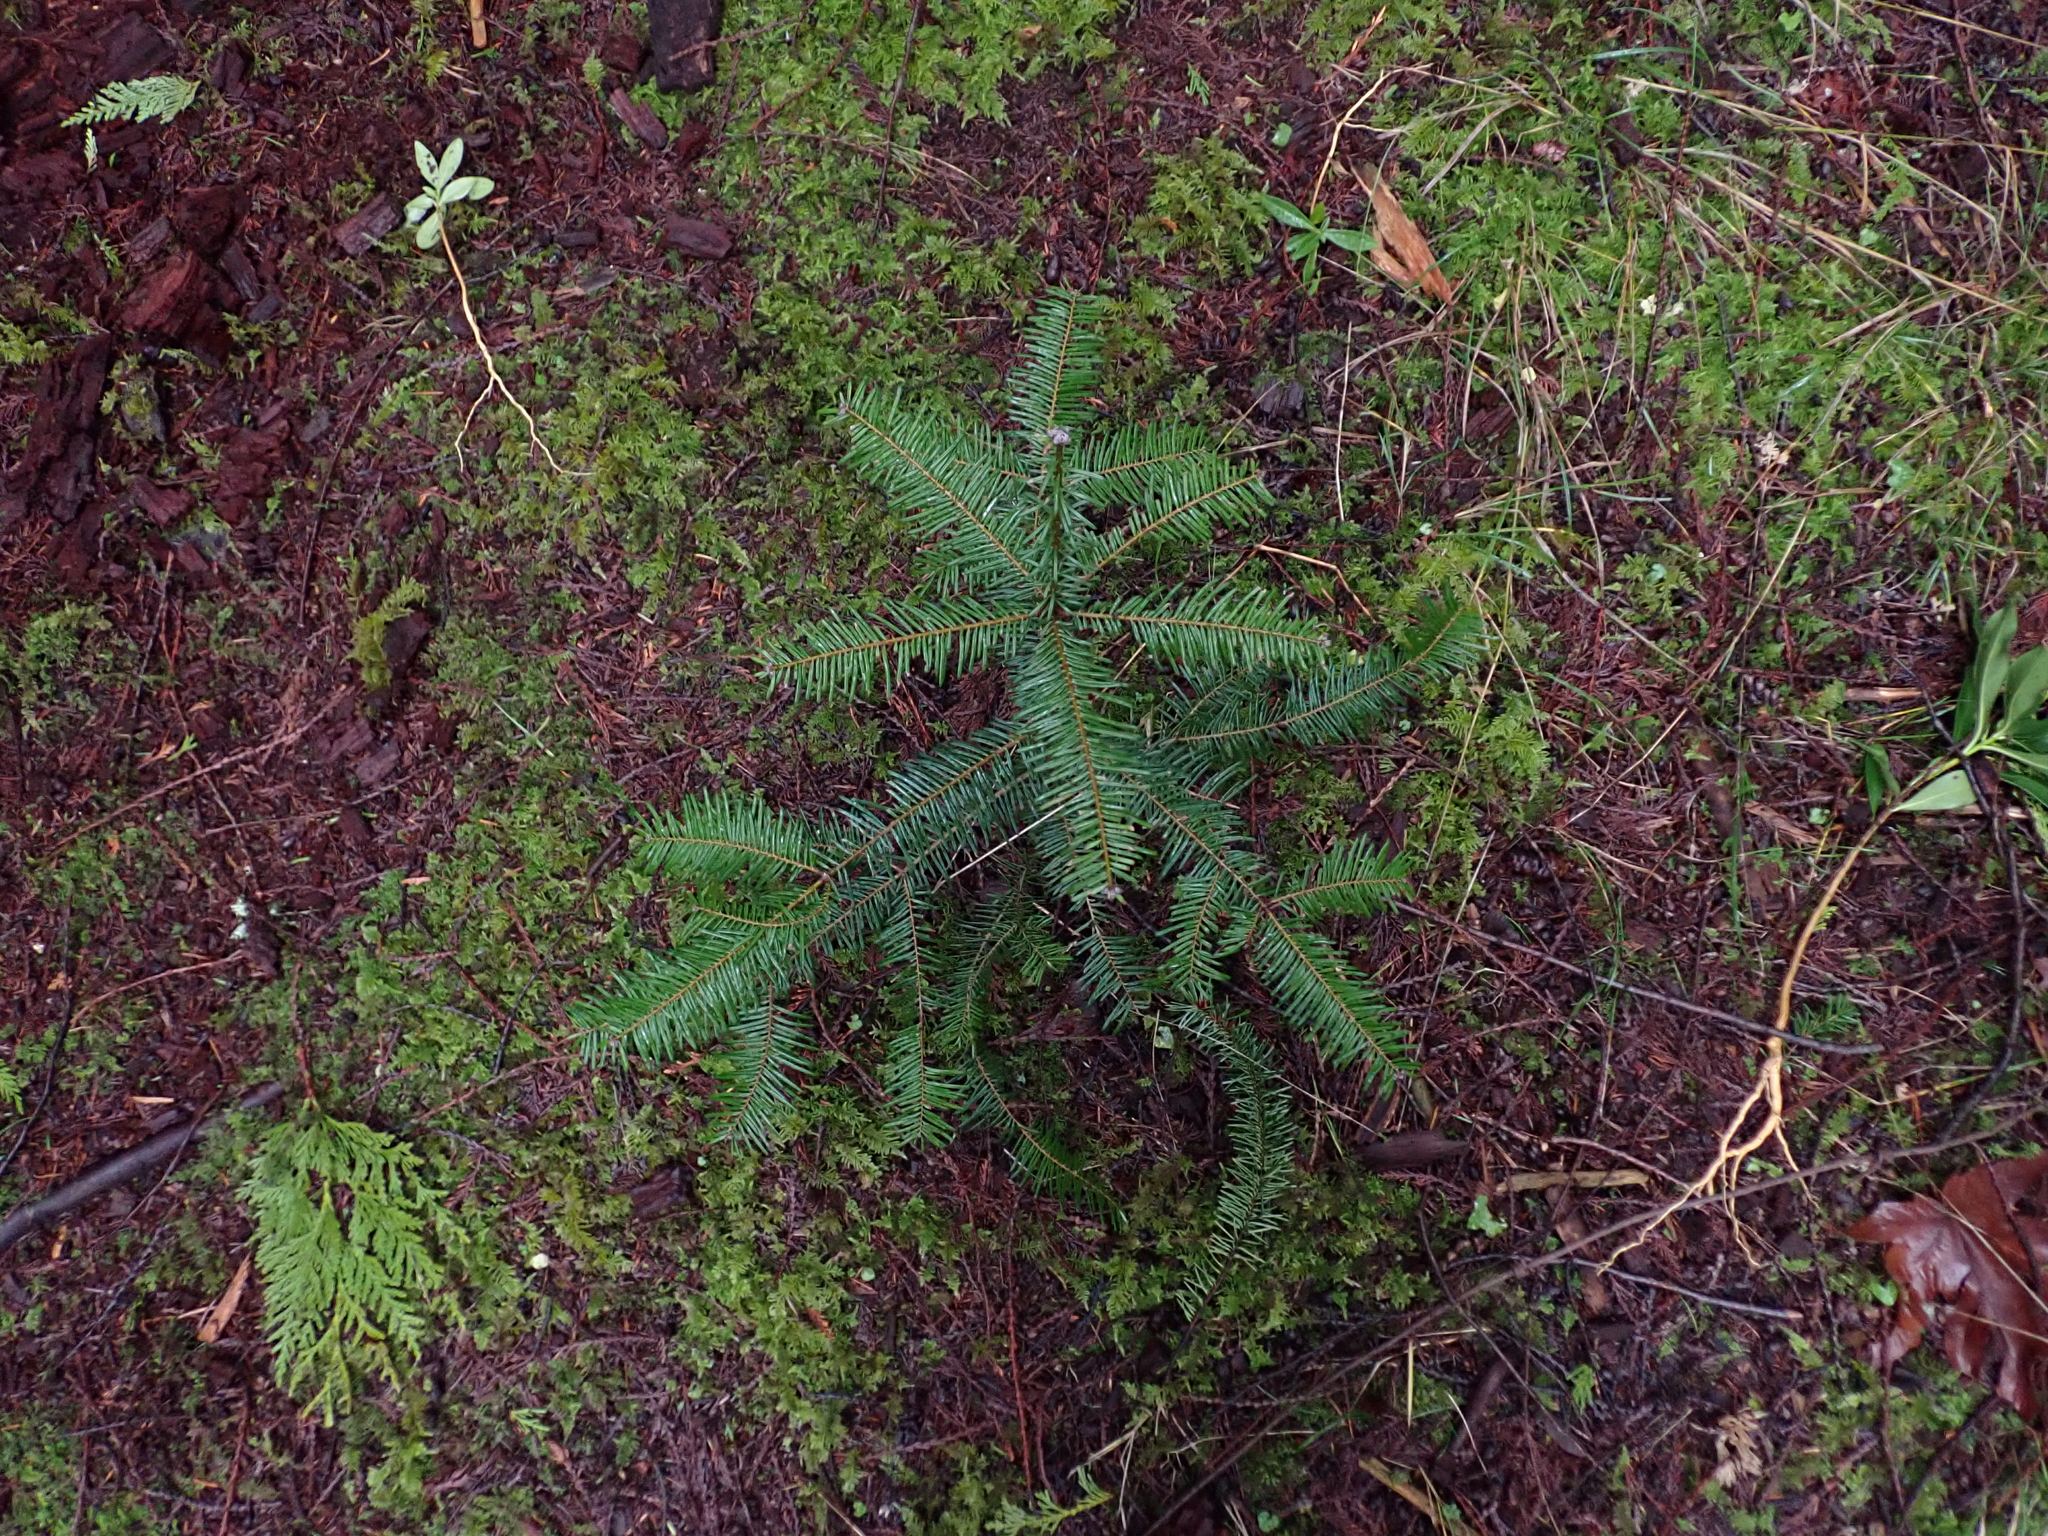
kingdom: Plantae
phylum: Tracheophyta
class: Pinopsida
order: Pinales
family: Pinaceae
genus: Abies
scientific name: Abies grandis
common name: Giant fir
